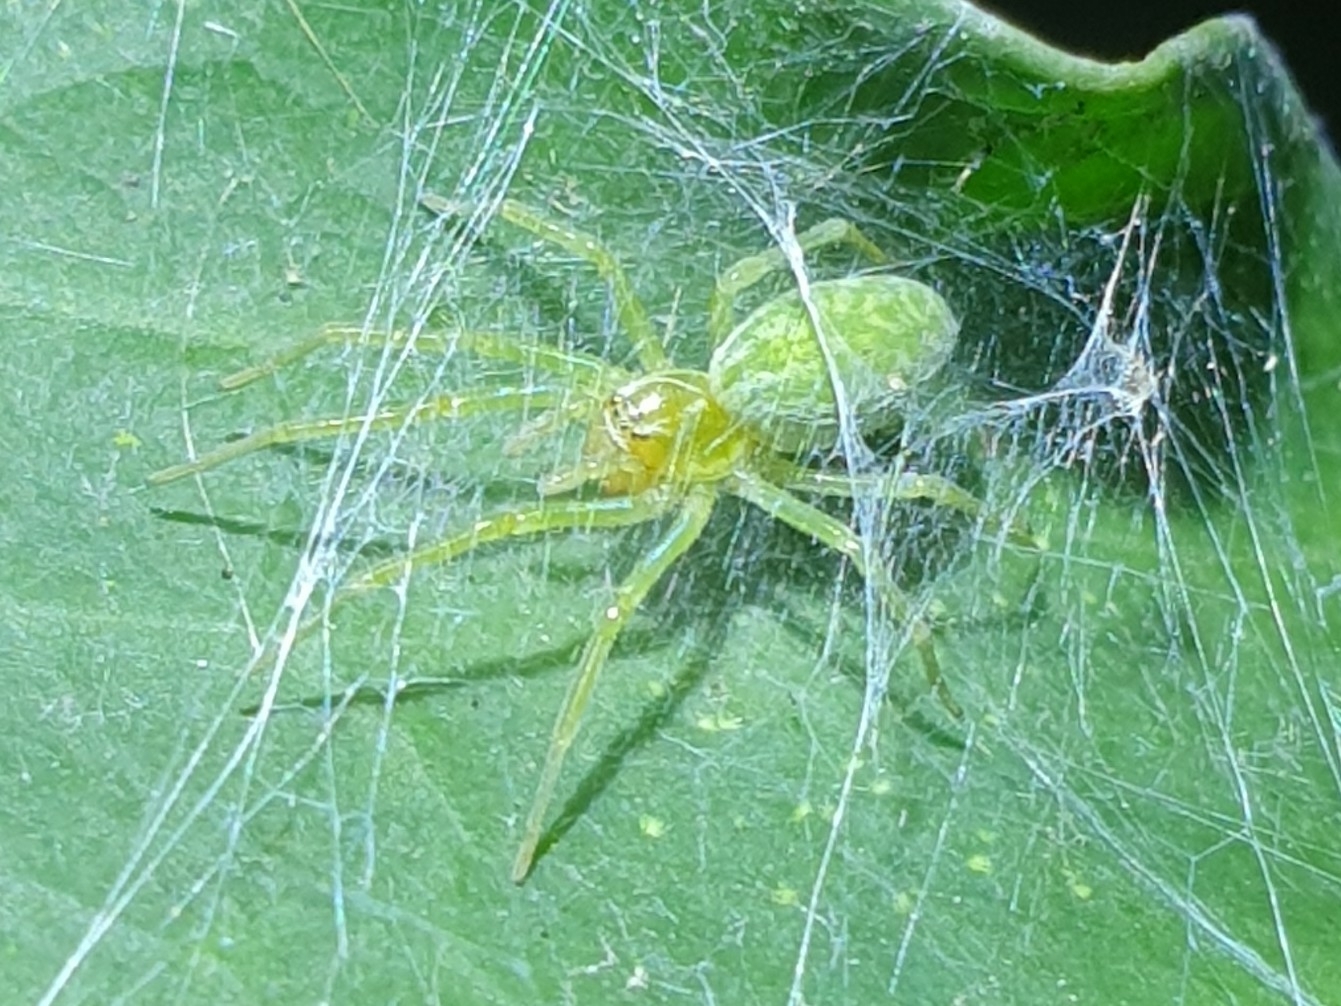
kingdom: Animalia
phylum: Arthropoda
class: Arachnida
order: Araneae
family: Dictynidae
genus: Nigma
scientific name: Nigma walckenaeri
